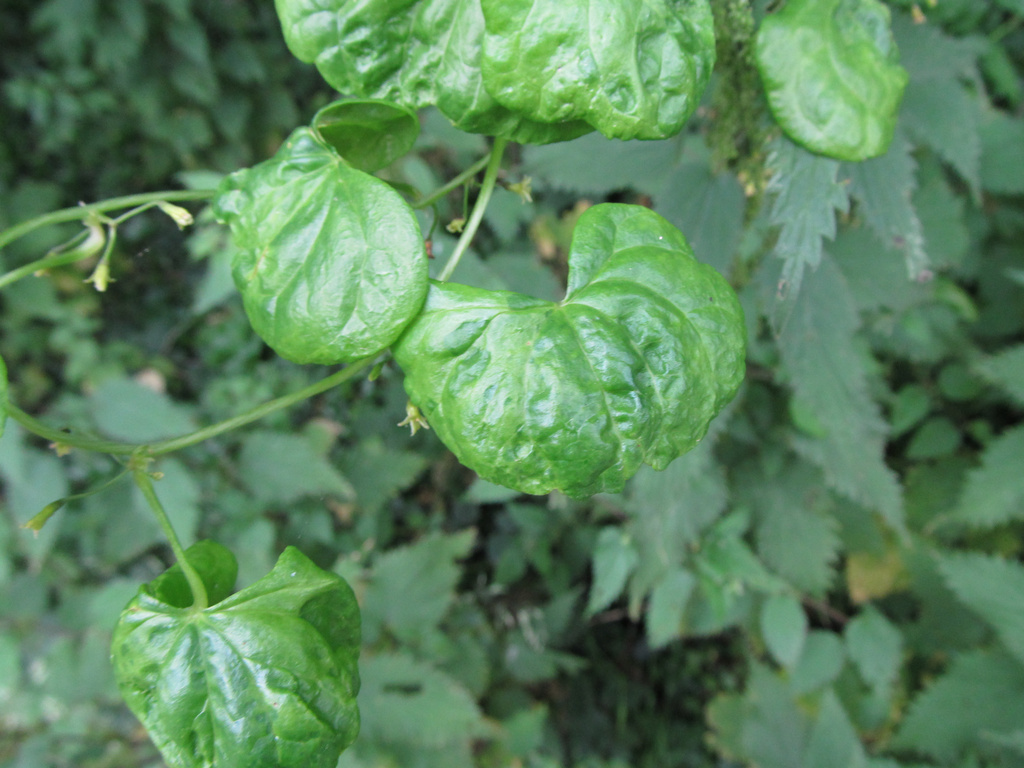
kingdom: Plantae
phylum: Tracheophyta
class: Liliopsida
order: Dioscoreales
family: Dioscoreaceae
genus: Dioscorea
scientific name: Dioscorea communis
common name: Black-bindweed
